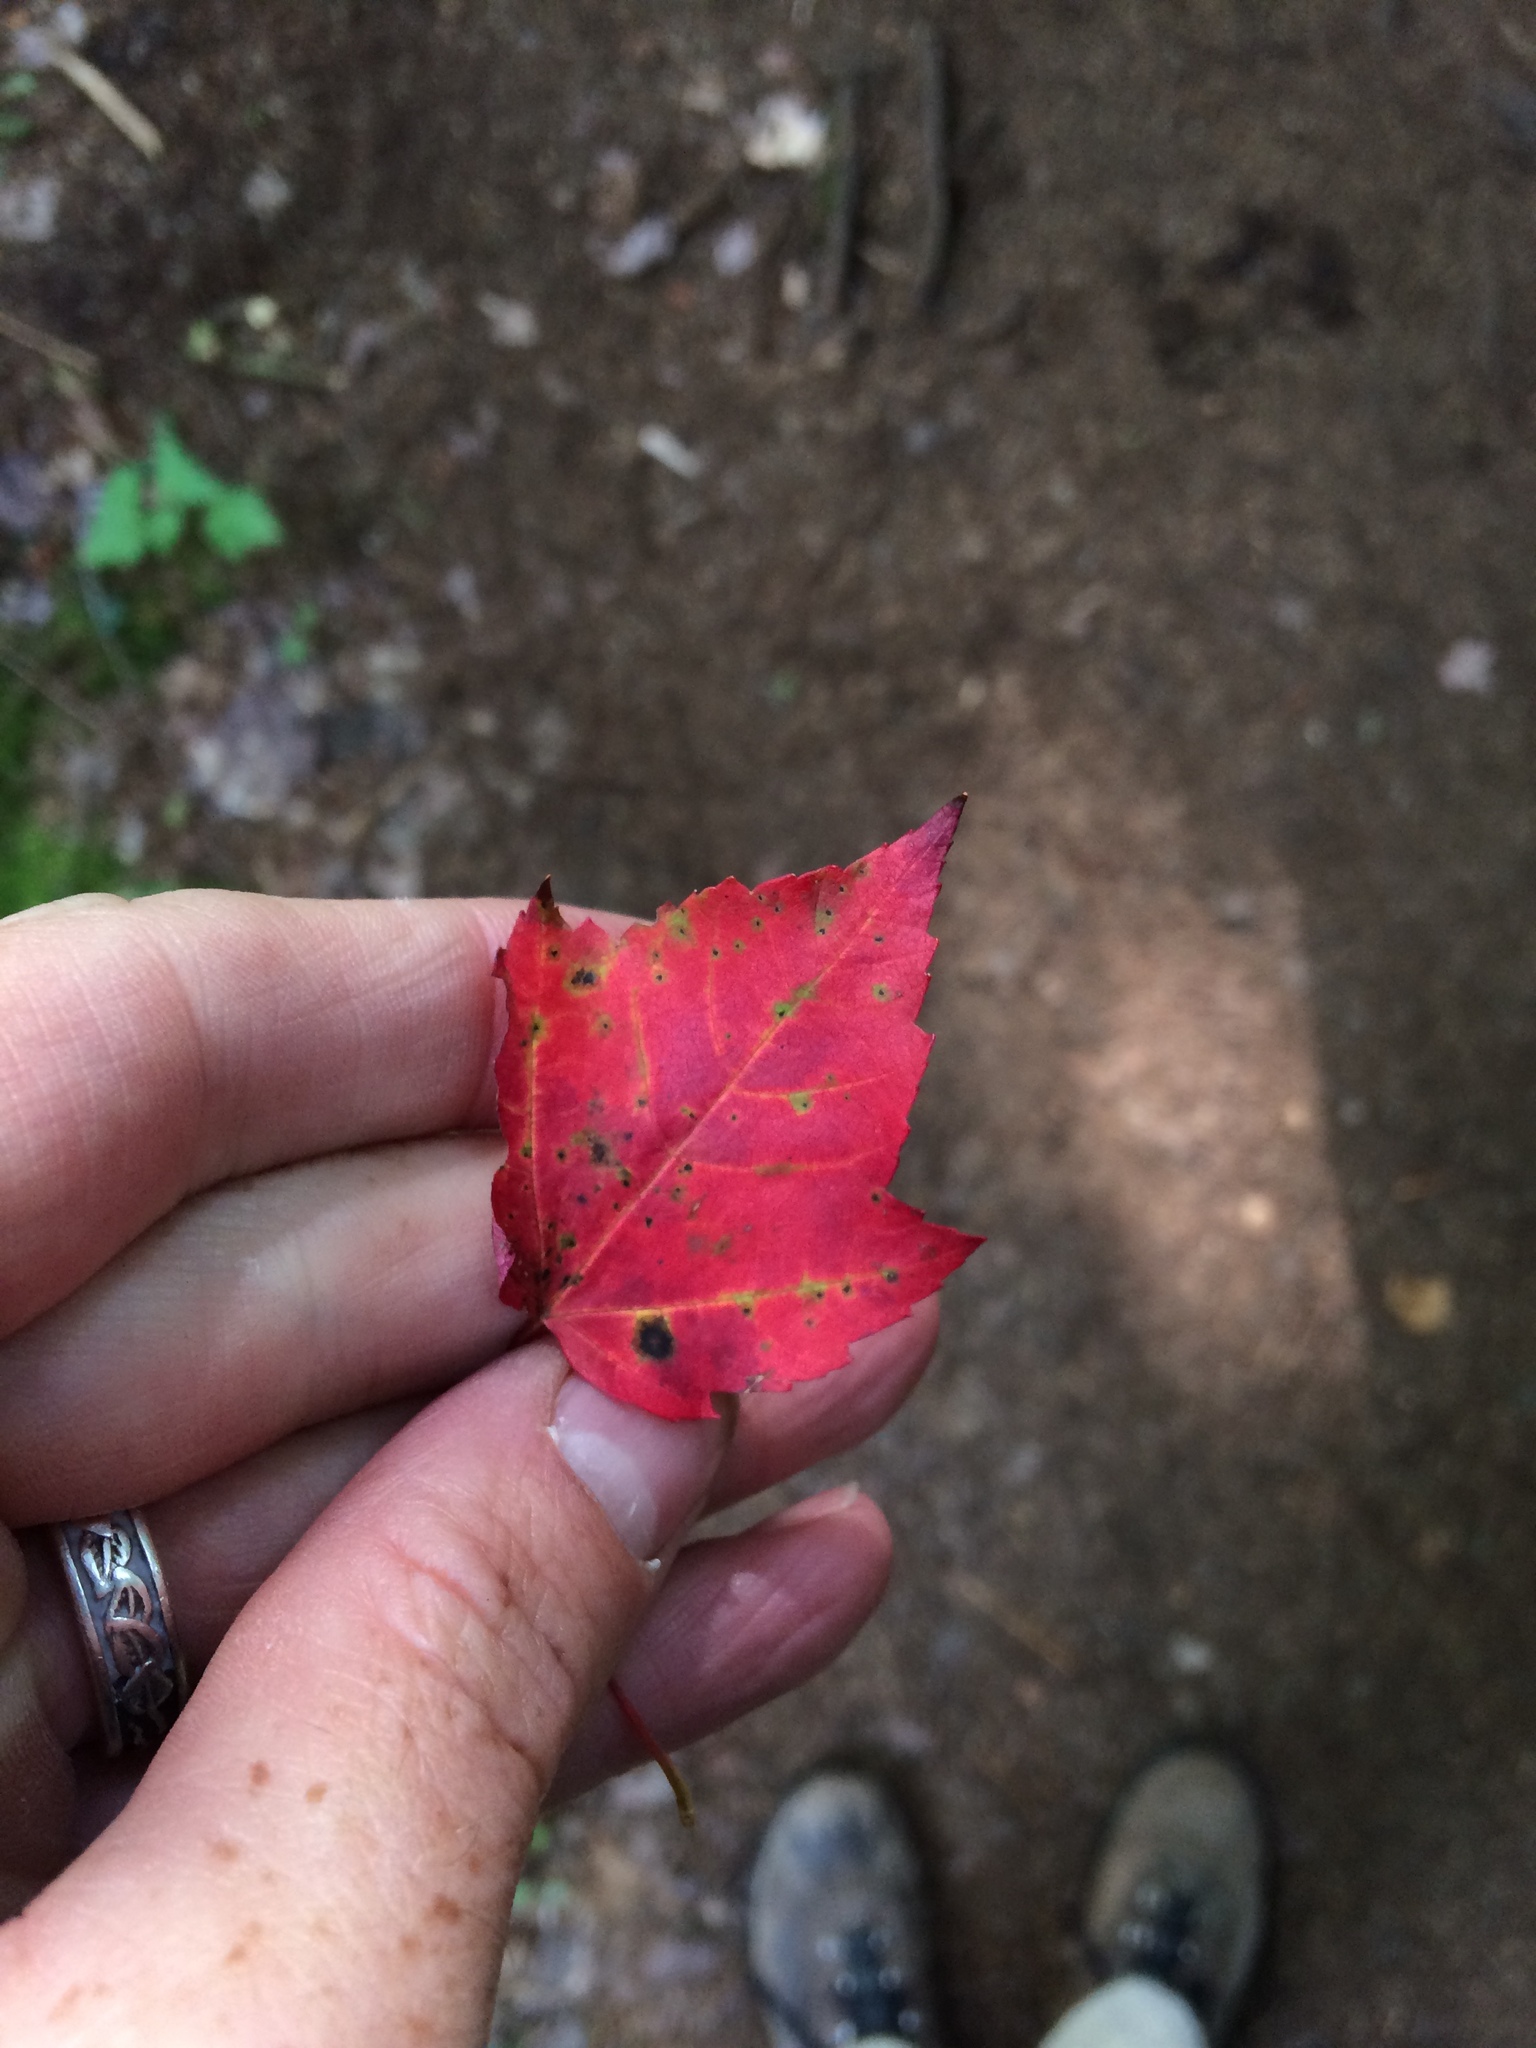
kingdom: Plantae
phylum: Tracheophyta
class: Magnoliopsida
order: Sapindales
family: Sapindaceae
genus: Acer
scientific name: Acer rubrum
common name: Red maple
